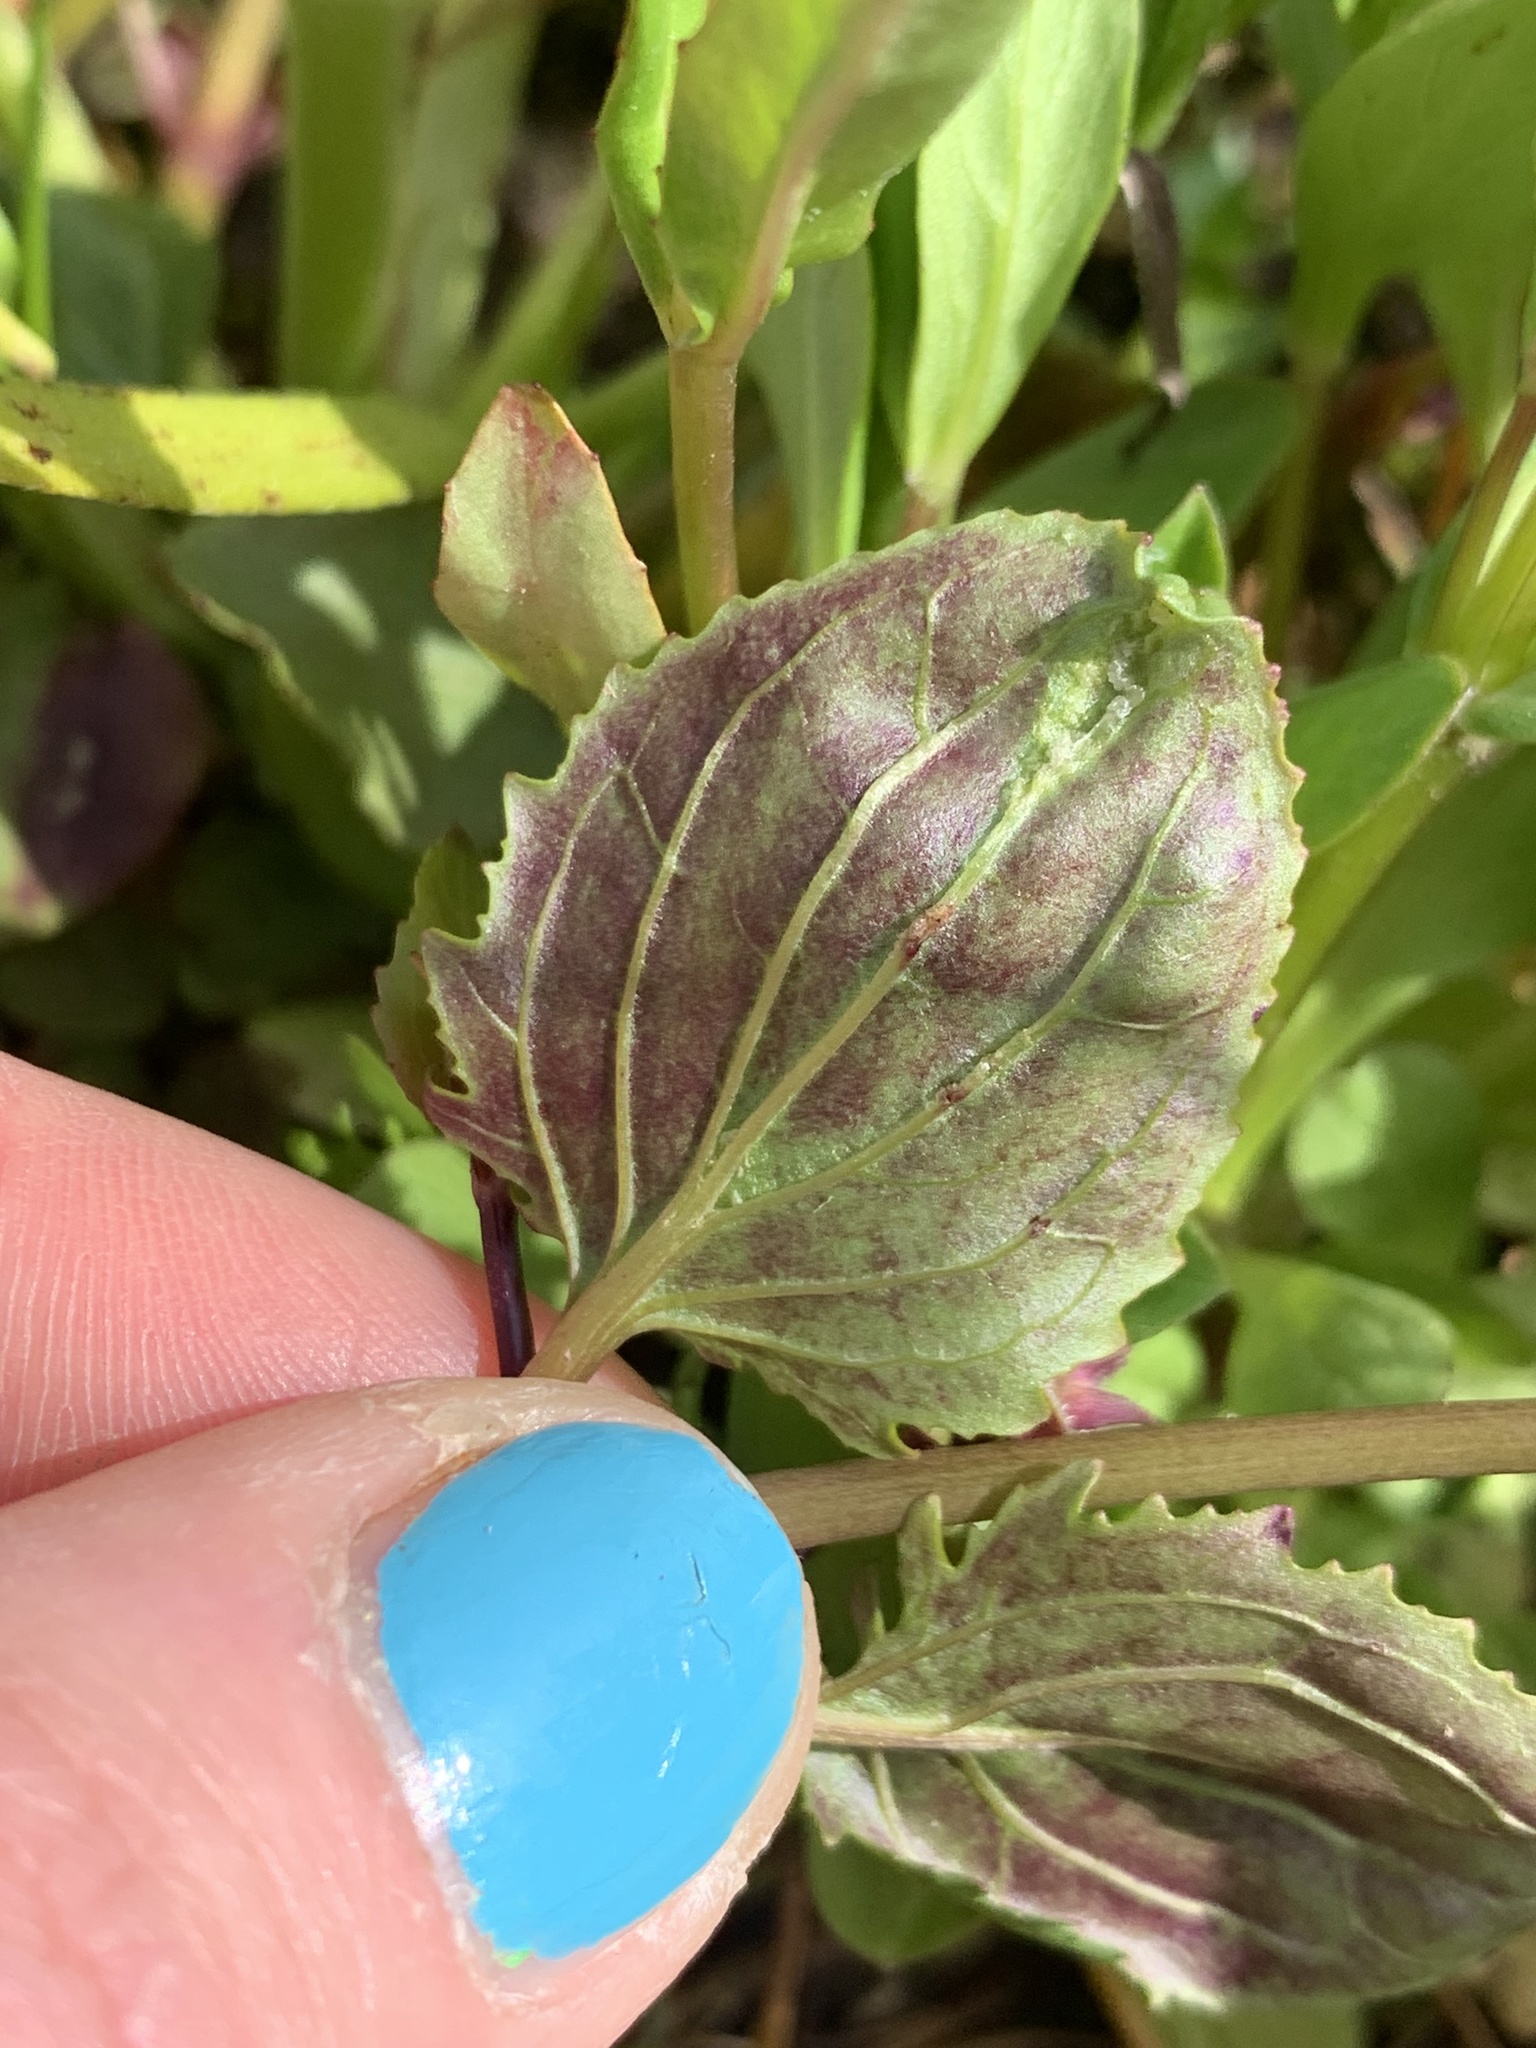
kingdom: Plantae
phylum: Tracheophyta
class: Magnoliopsida
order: Lamiales
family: Phrymaceae
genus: Erythranthe
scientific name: Erythranthe guttata
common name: Monkeyflower
